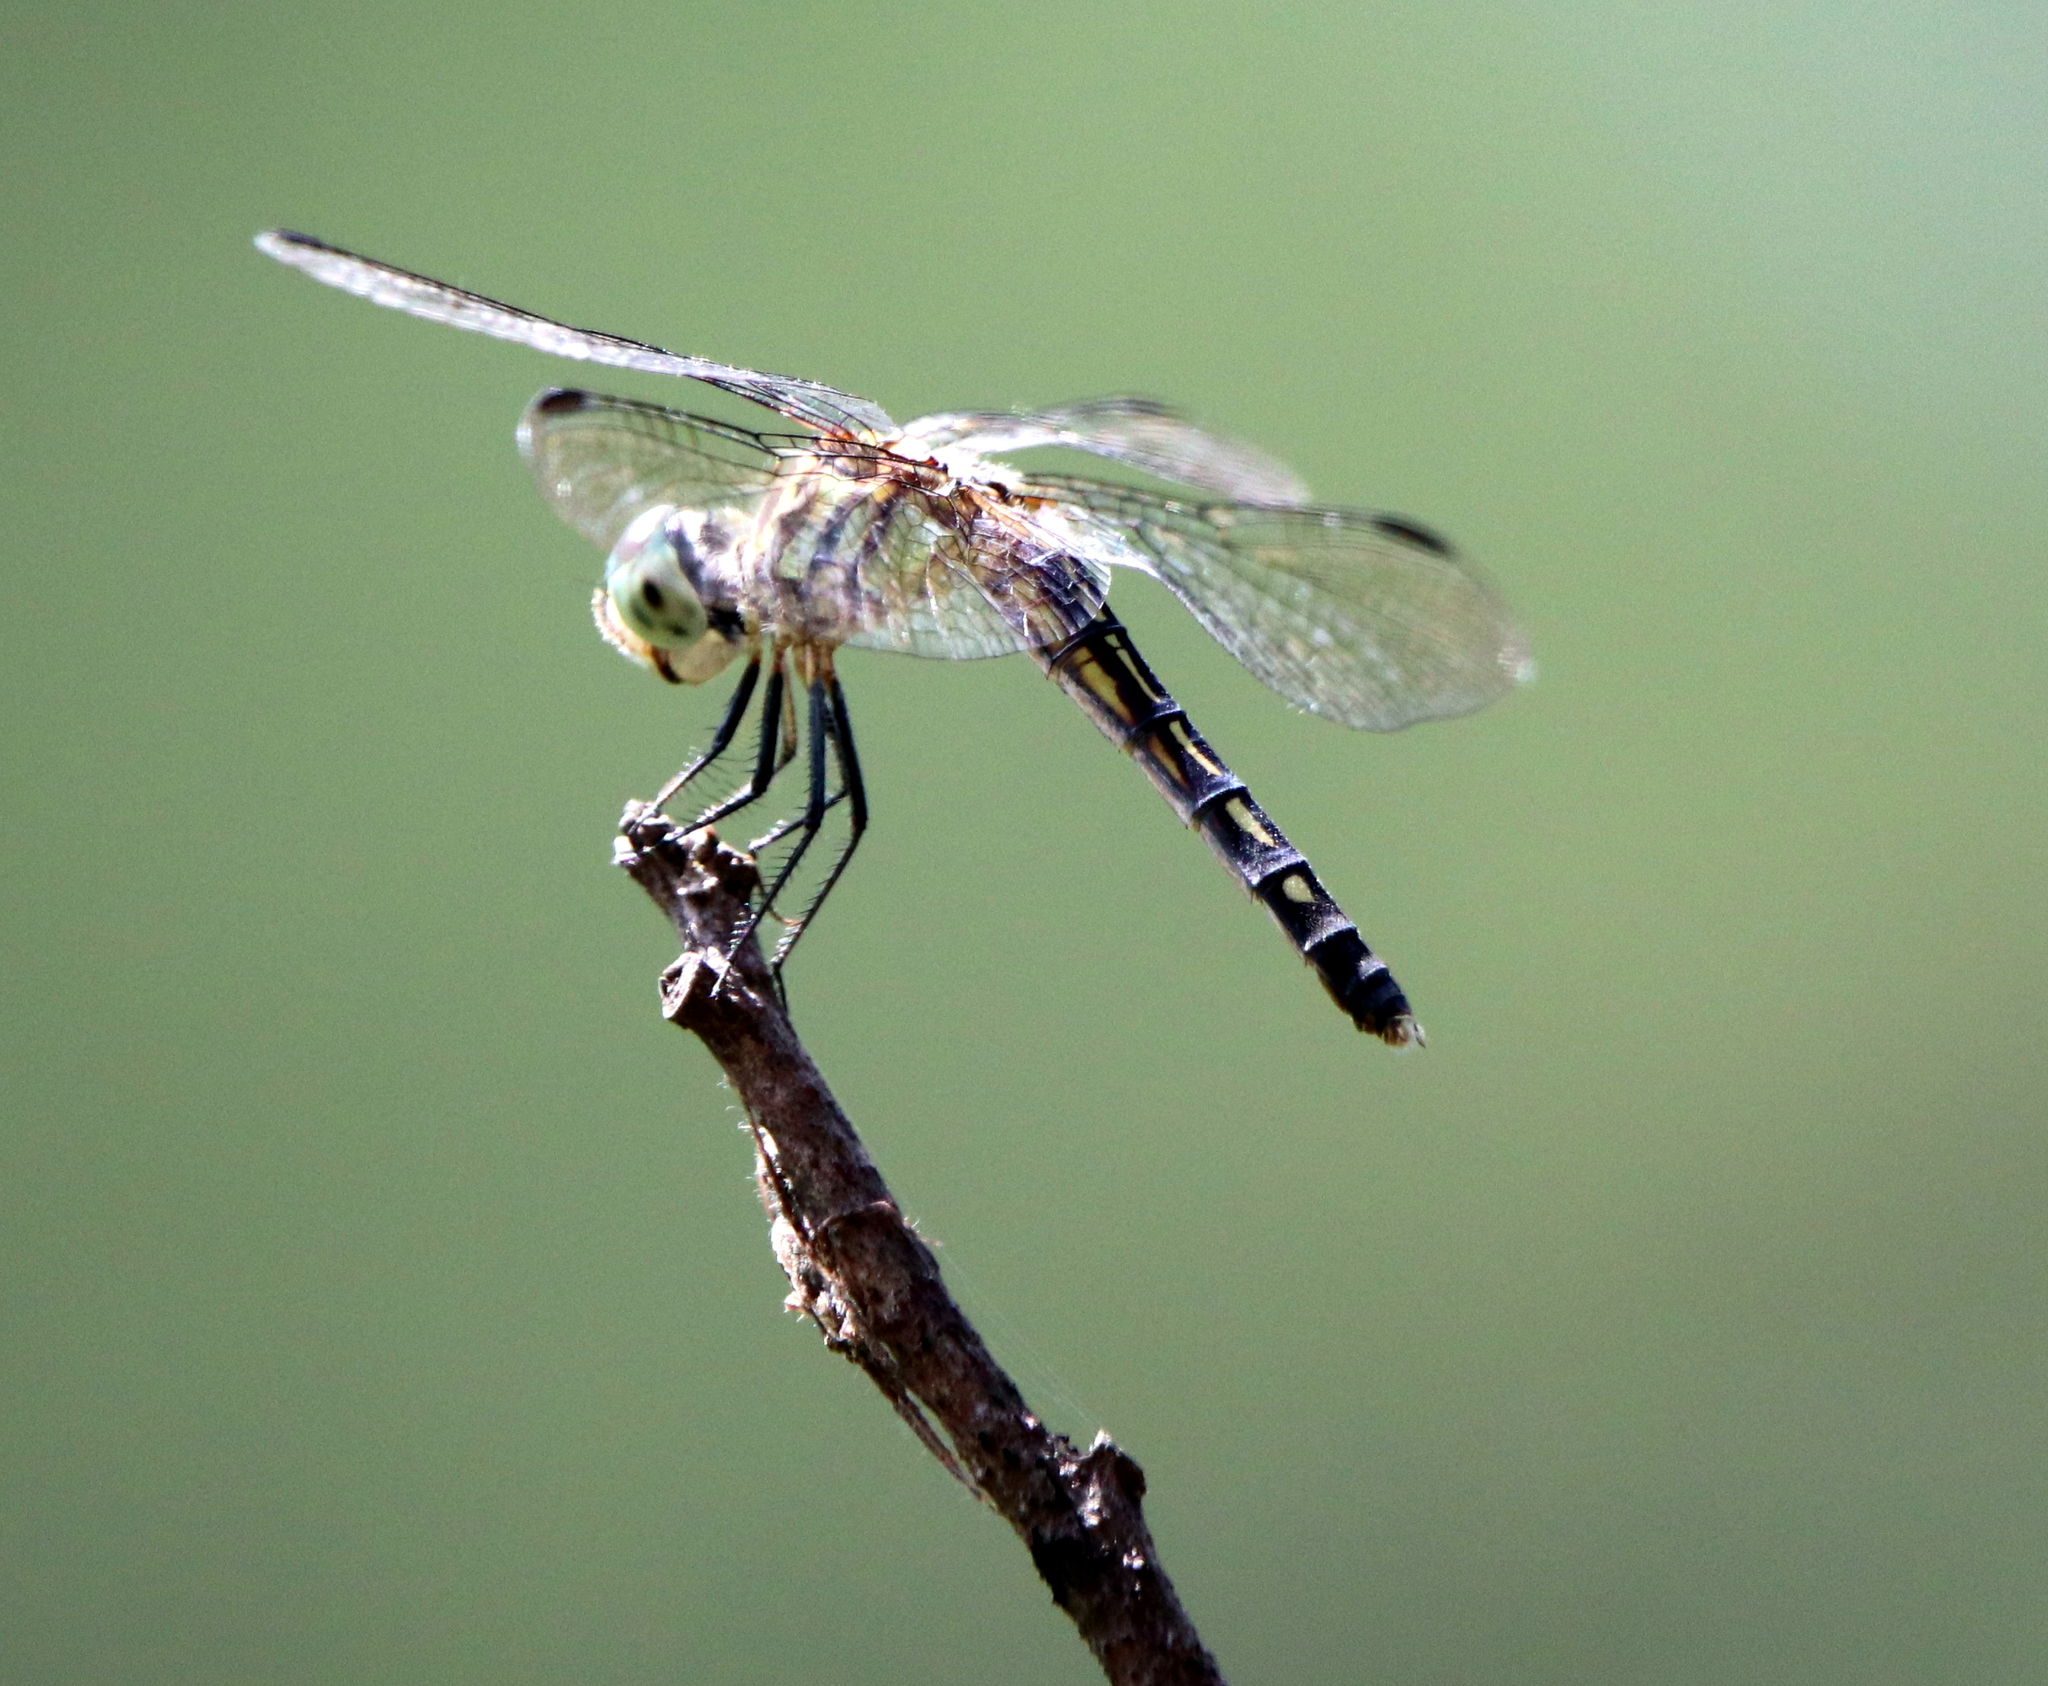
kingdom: Animalia
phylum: Arthropoda
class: Insecta
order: Odonata
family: Libellulidae
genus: Pachydiplax
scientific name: Pachydiplax longipennis
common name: Blue dasher
